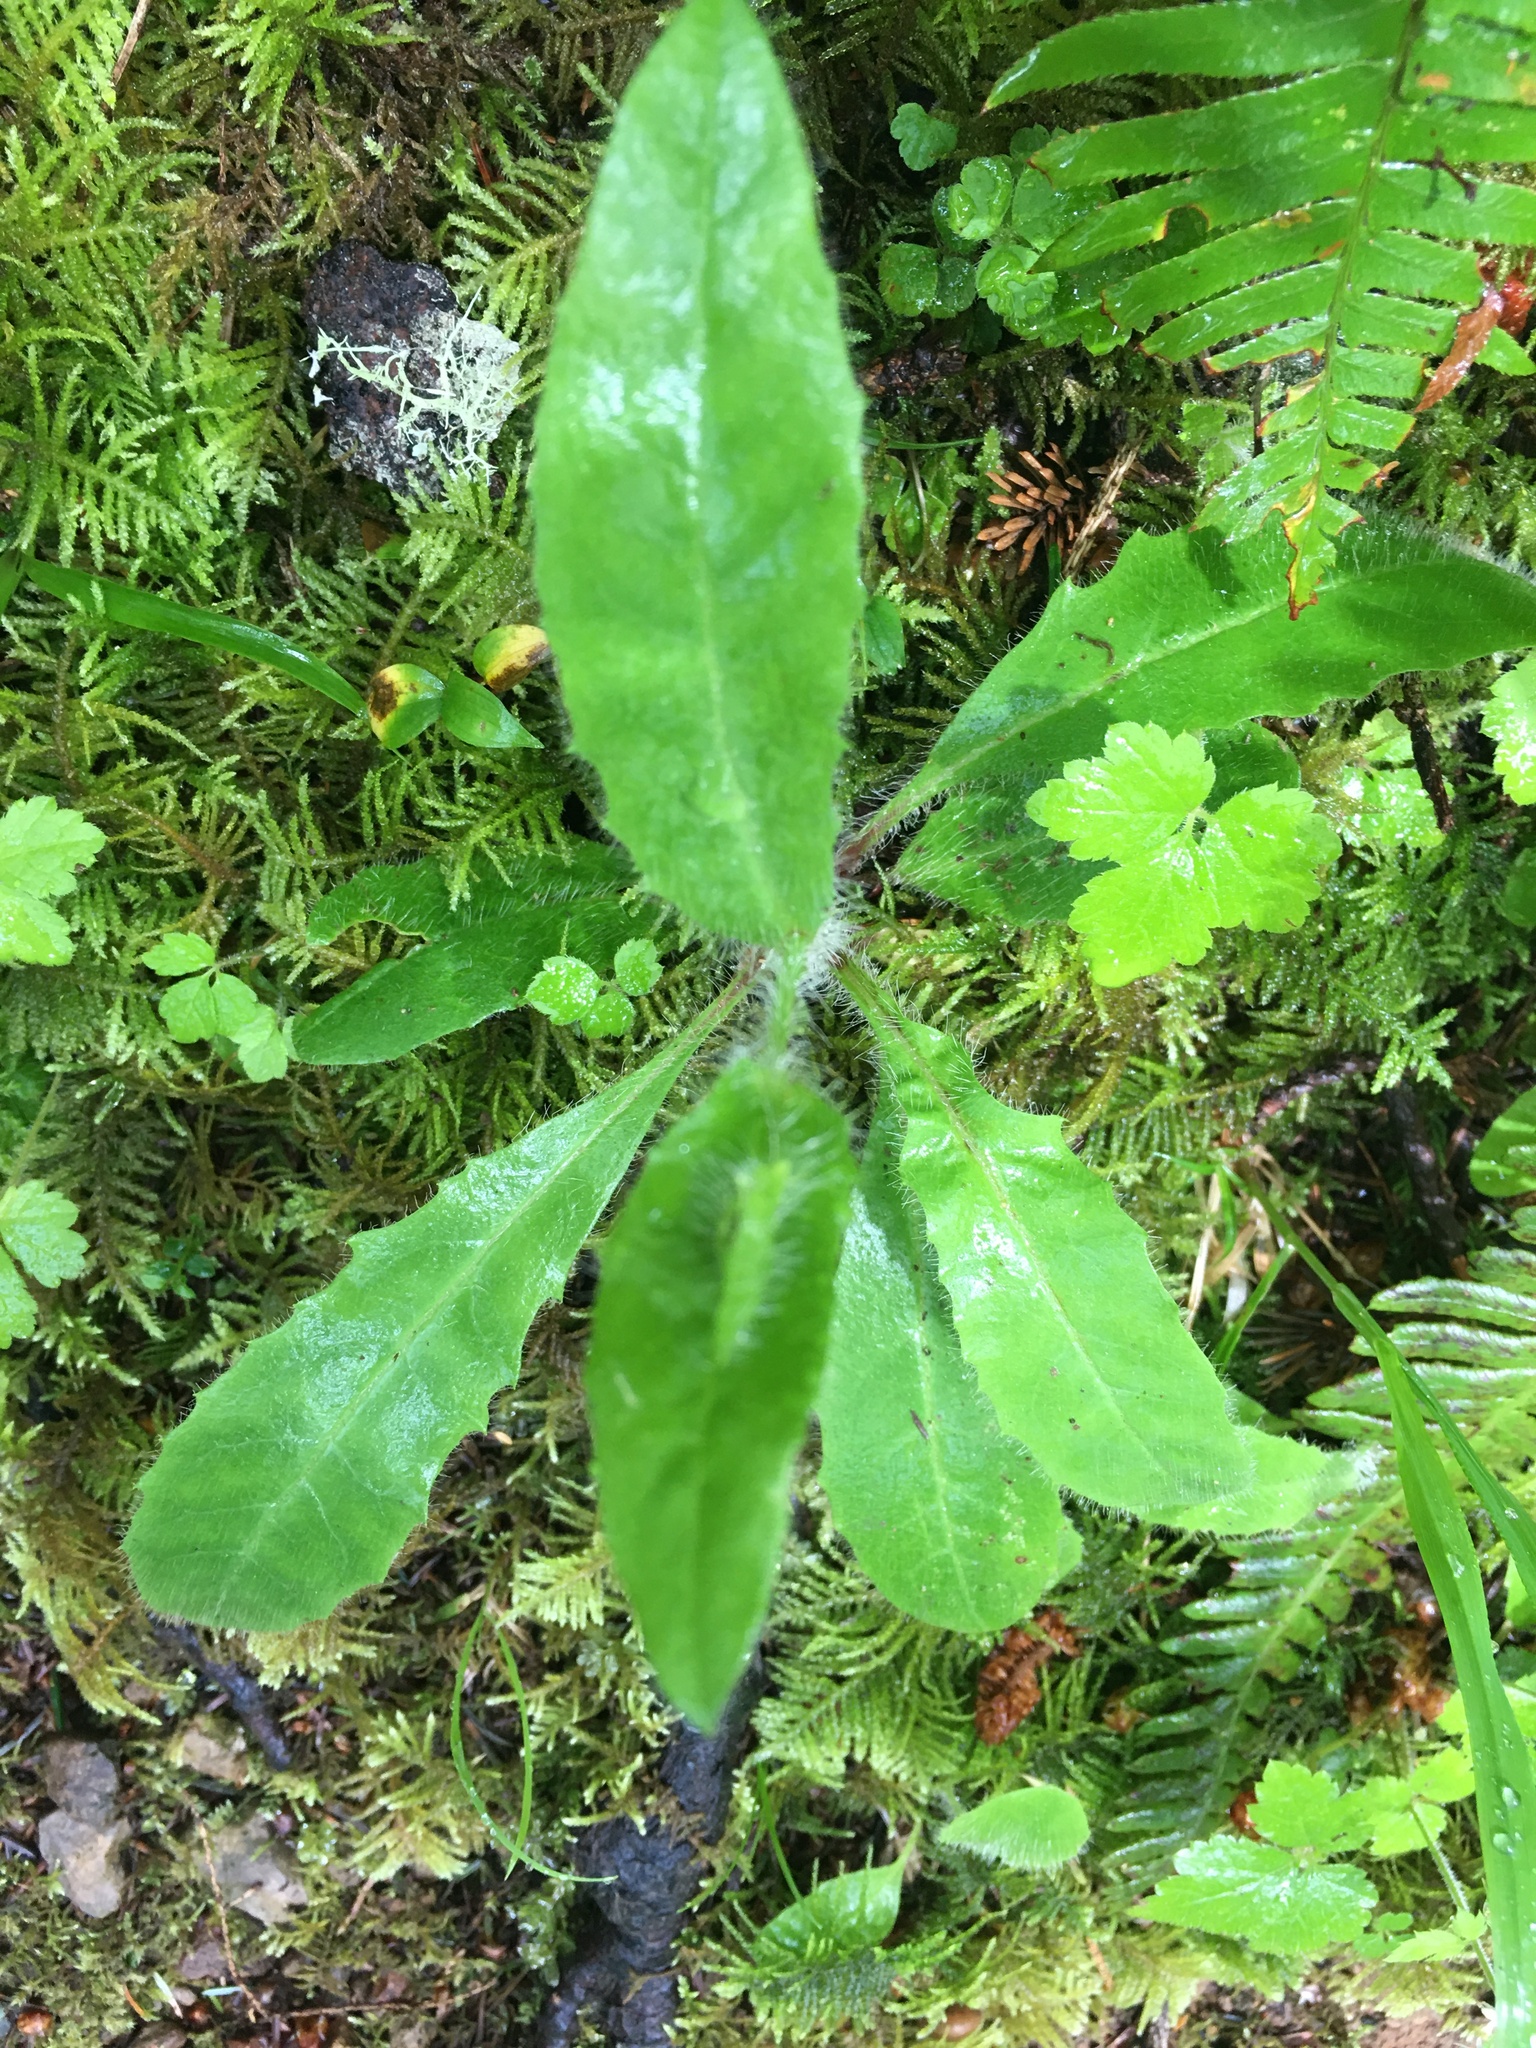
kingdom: Plantae
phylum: Tracheophyta
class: Magnoliopsida
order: Asterales
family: Asteraceae
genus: Hieracium
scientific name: Hieracium albiflorum
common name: White hawkweed
